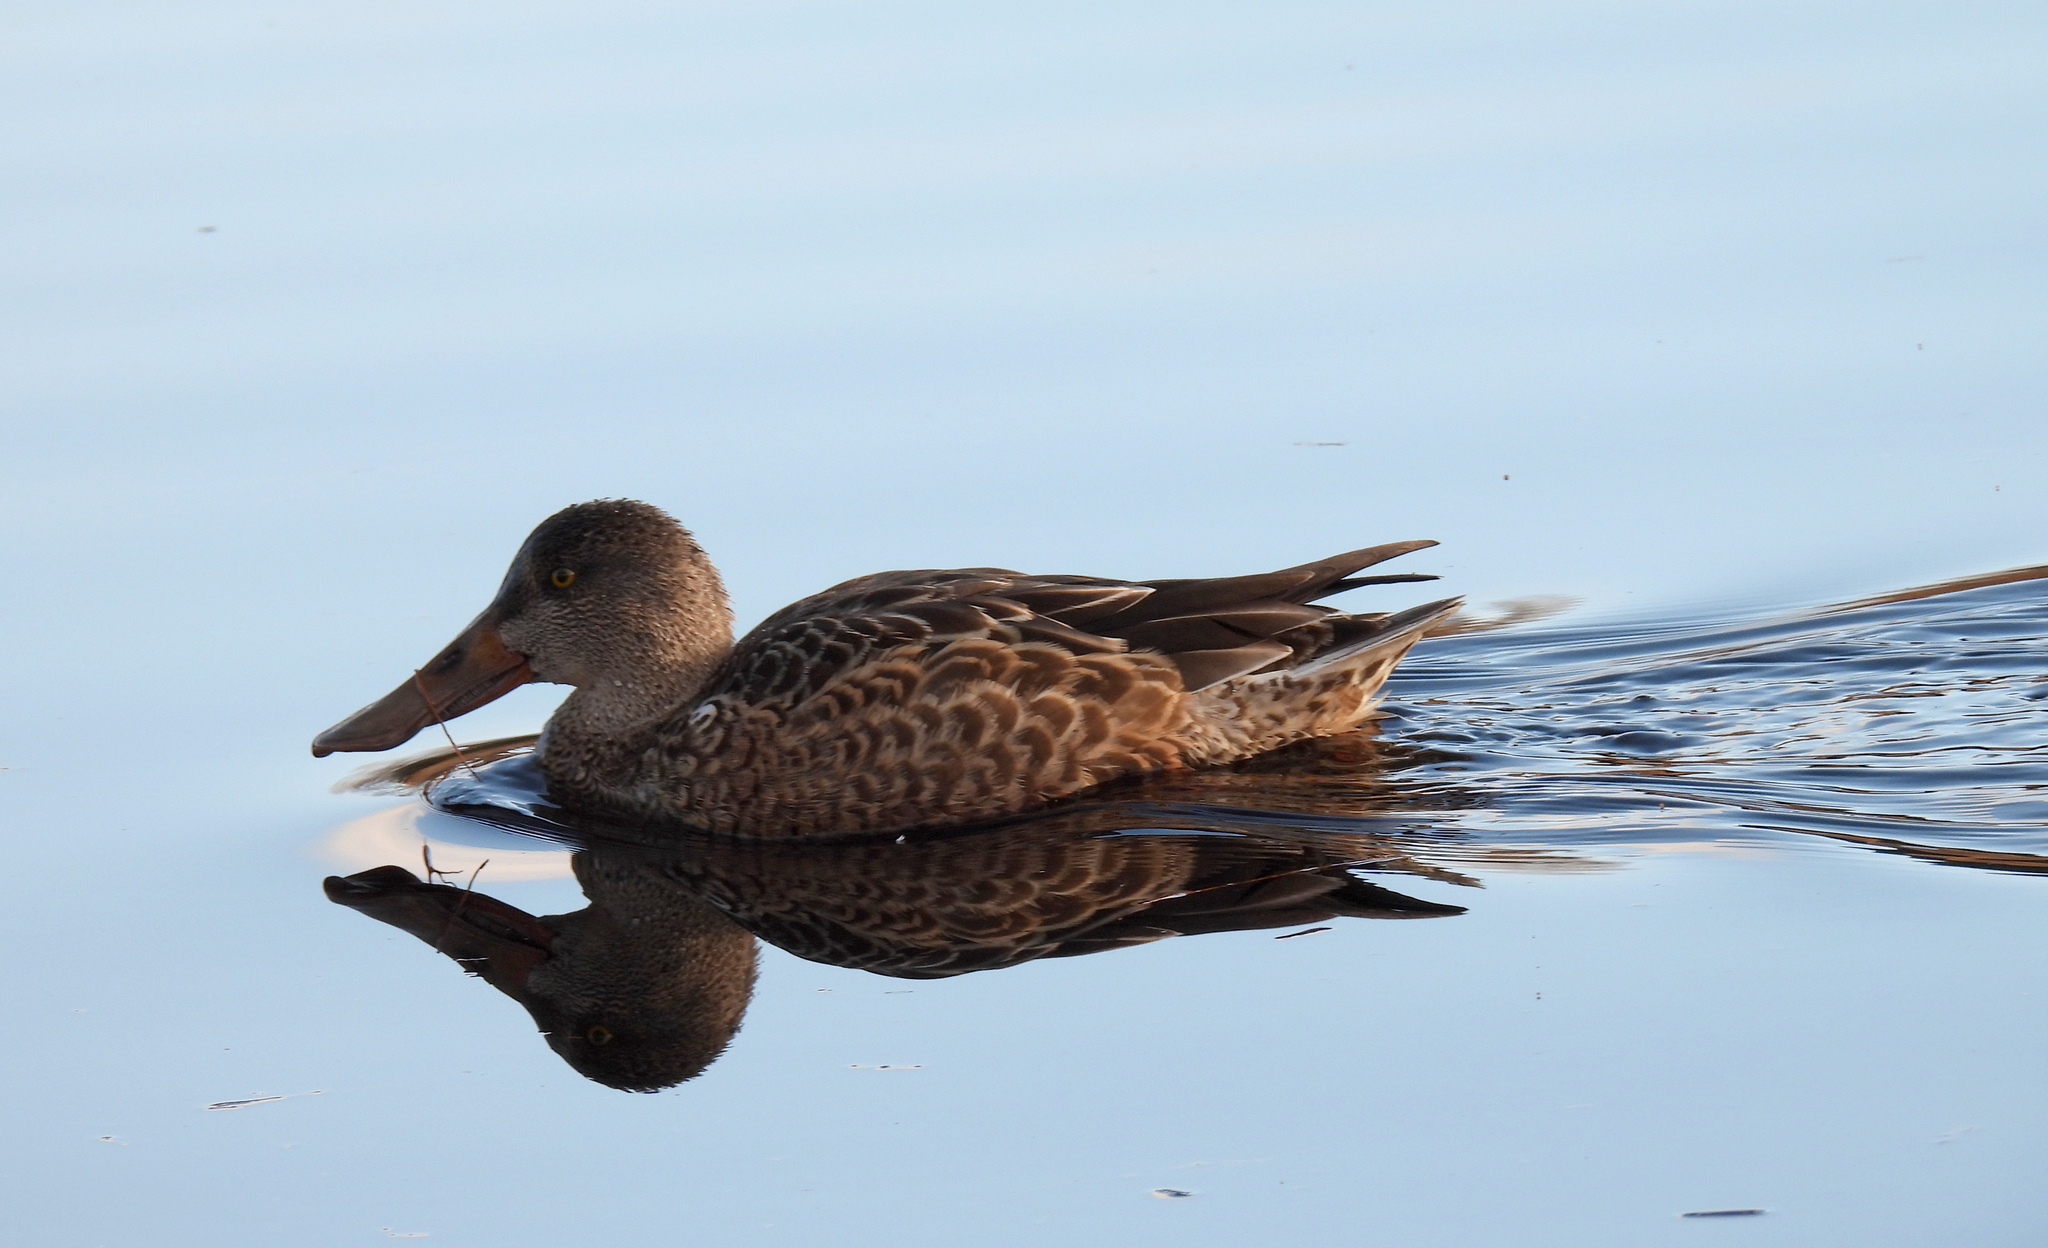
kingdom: Animalia
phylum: Chordata
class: Aves
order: Anseriformes
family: Anatidae
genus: Spatula
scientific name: Spatula clypeata
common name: Northern shoveler
